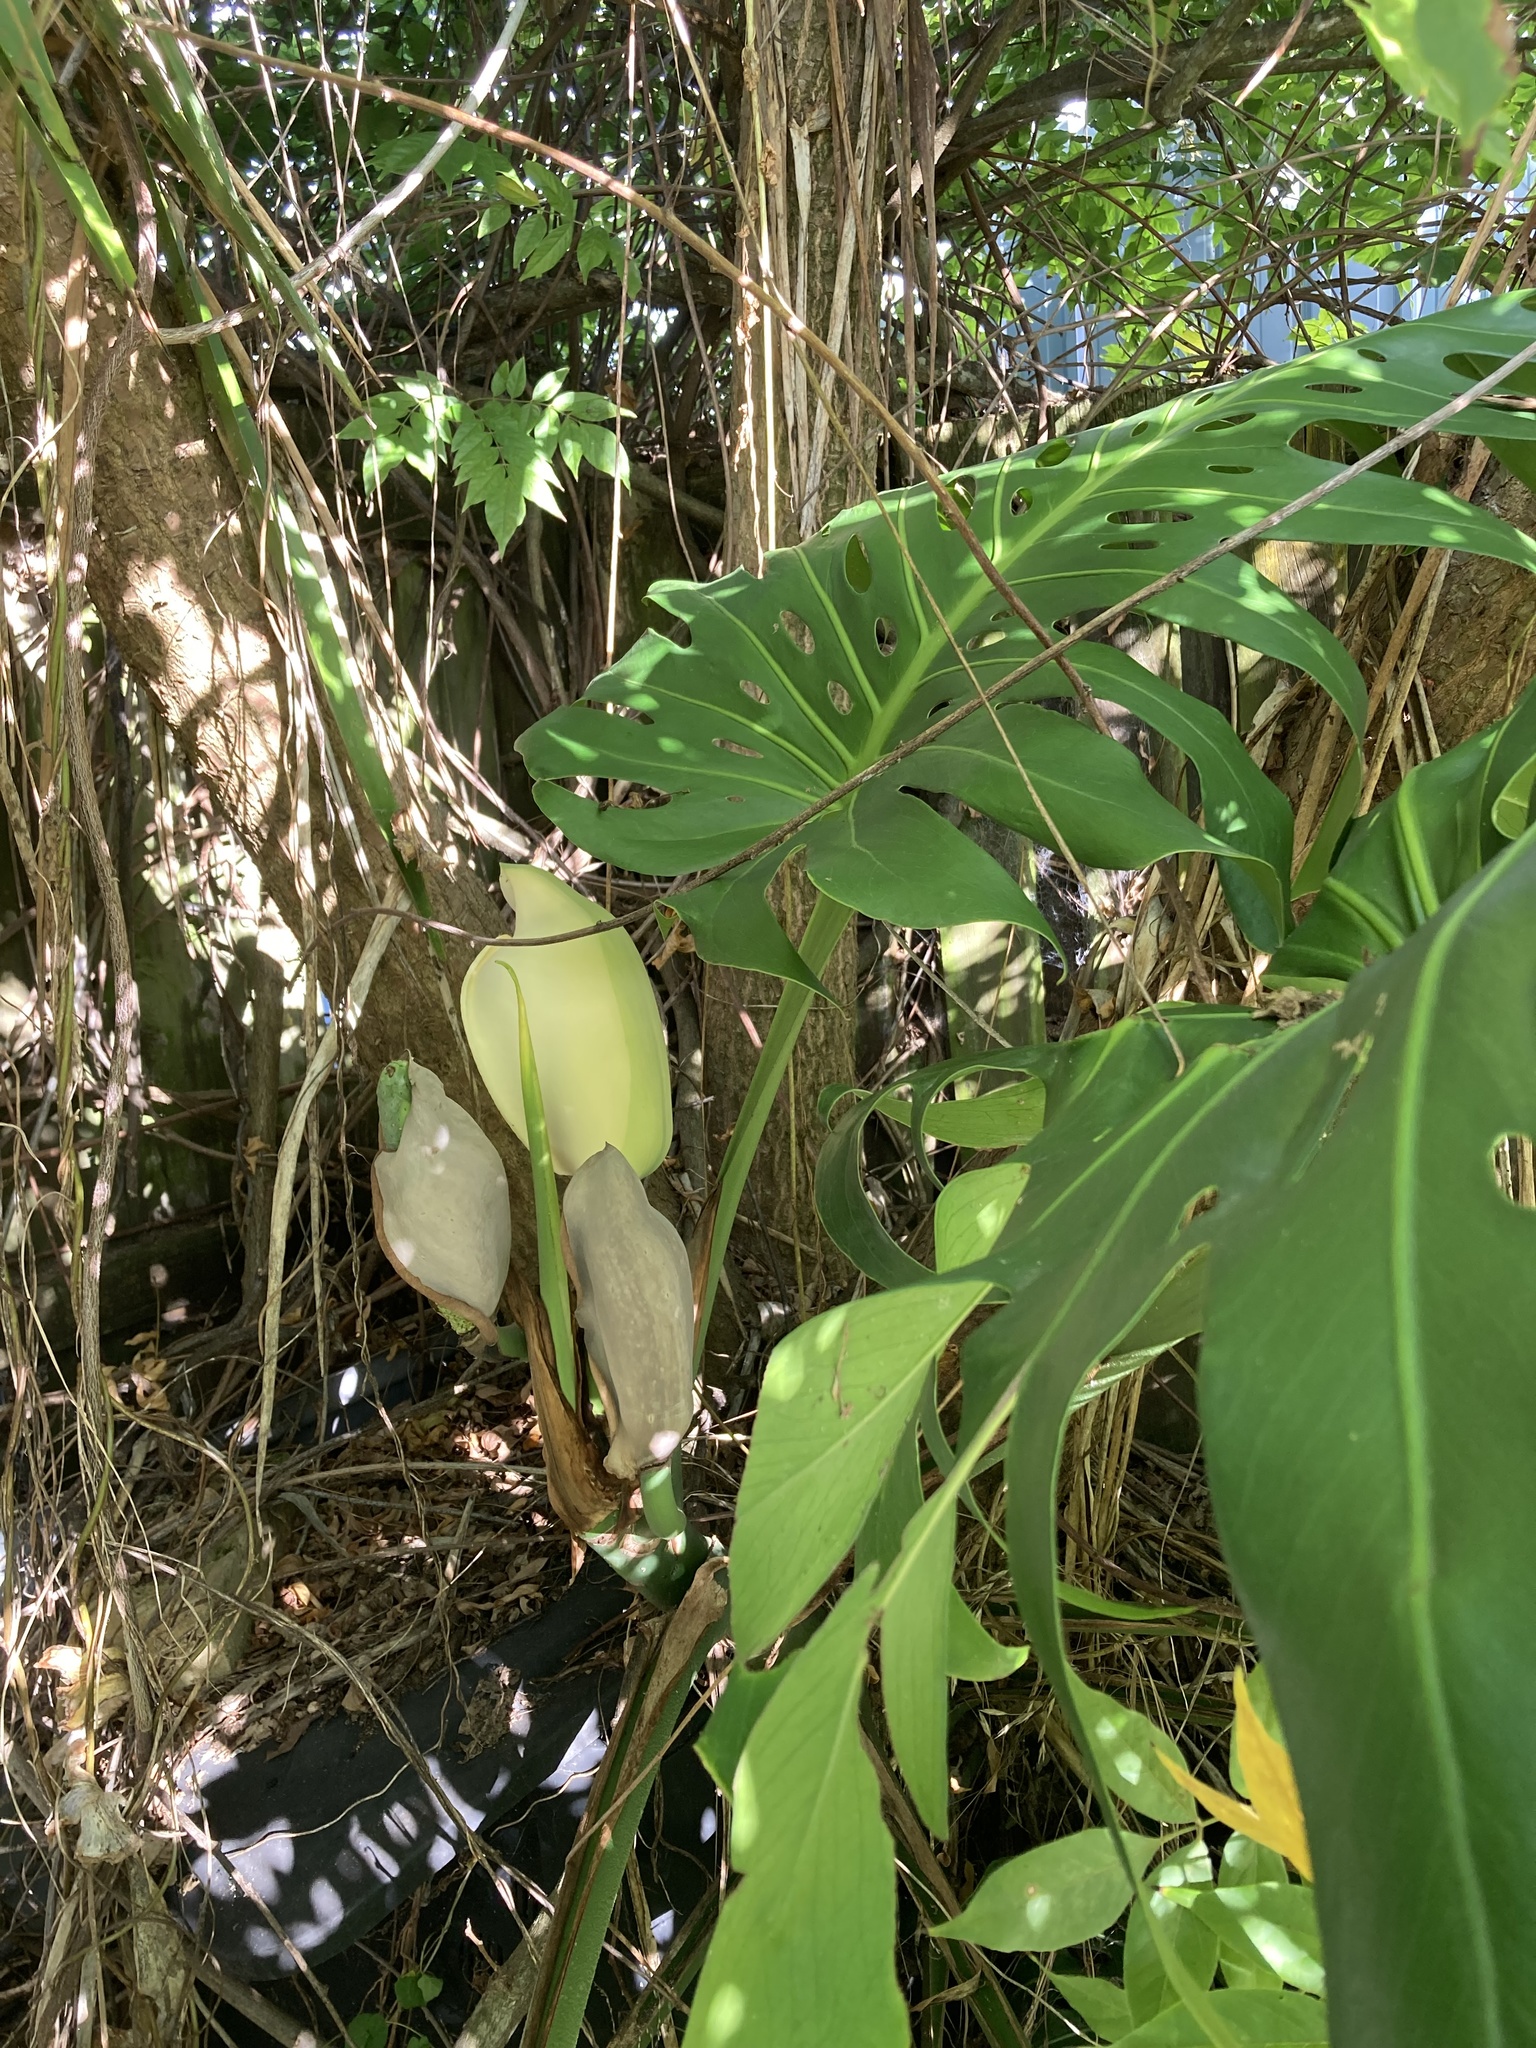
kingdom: Plantae
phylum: Tracheophyta
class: Liliopsida
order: Alismatales
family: Araceae
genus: Monstera
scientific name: Monstera deliciosa
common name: Cut-leaf-philodendron
